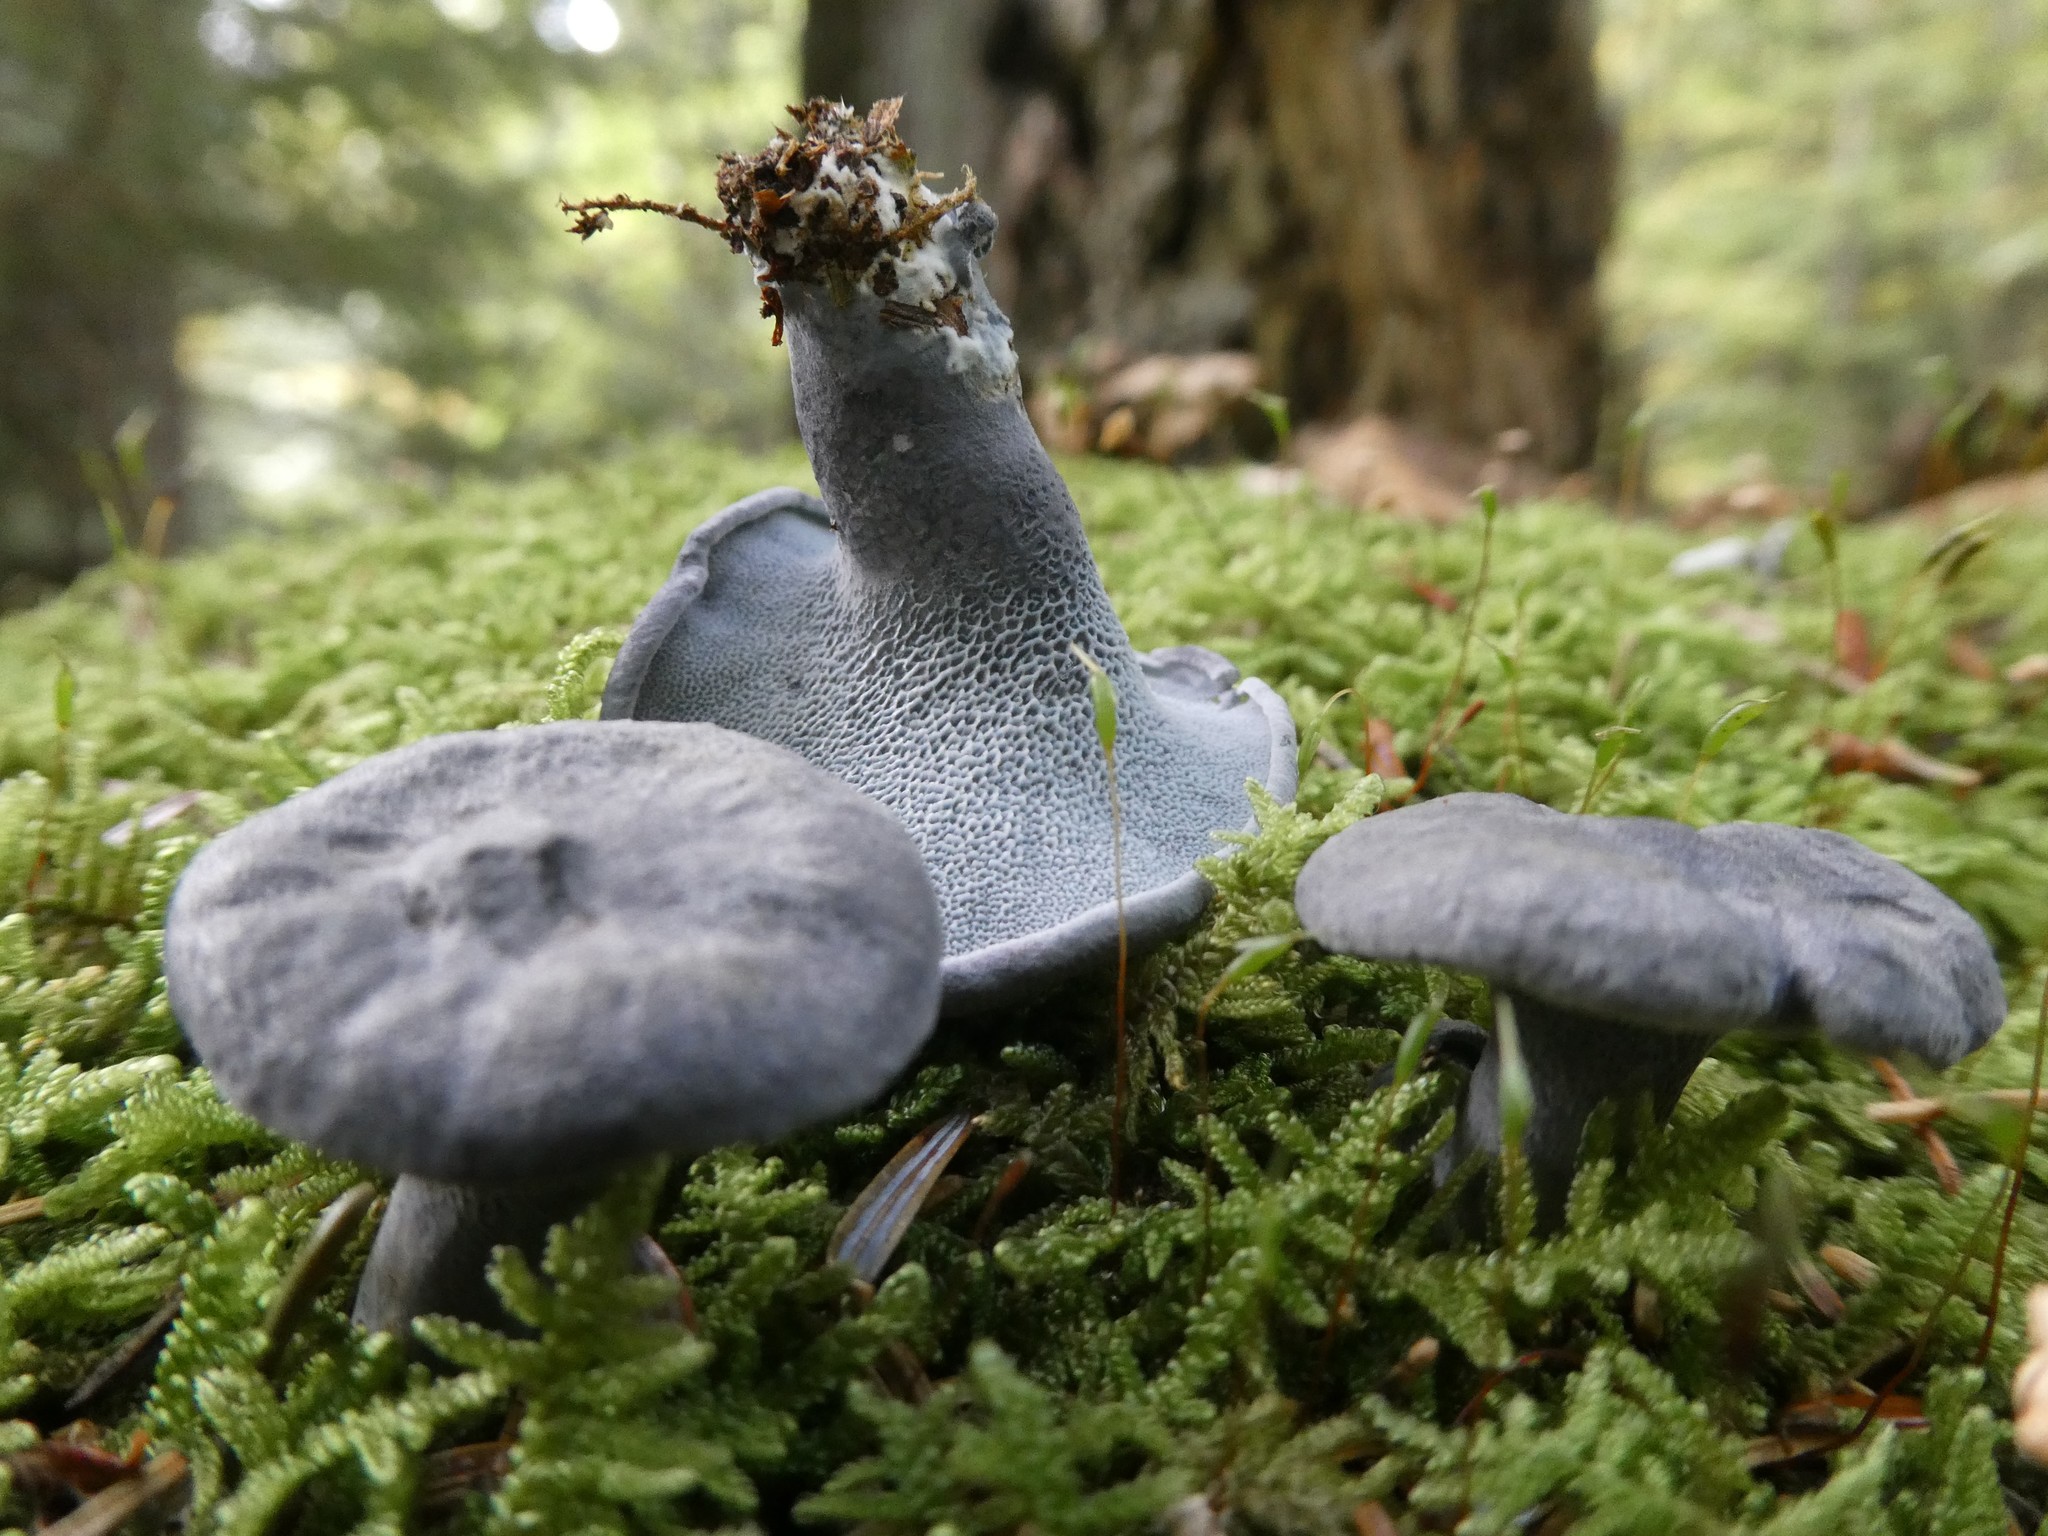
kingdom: Fungi
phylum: Basidiomycota
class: Agaricomycetes
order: Russulales
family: Albatrellaceae
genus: Neoalbatrellus
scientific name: Neoalbatrellus caeruleoporus
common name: Blue polypore
